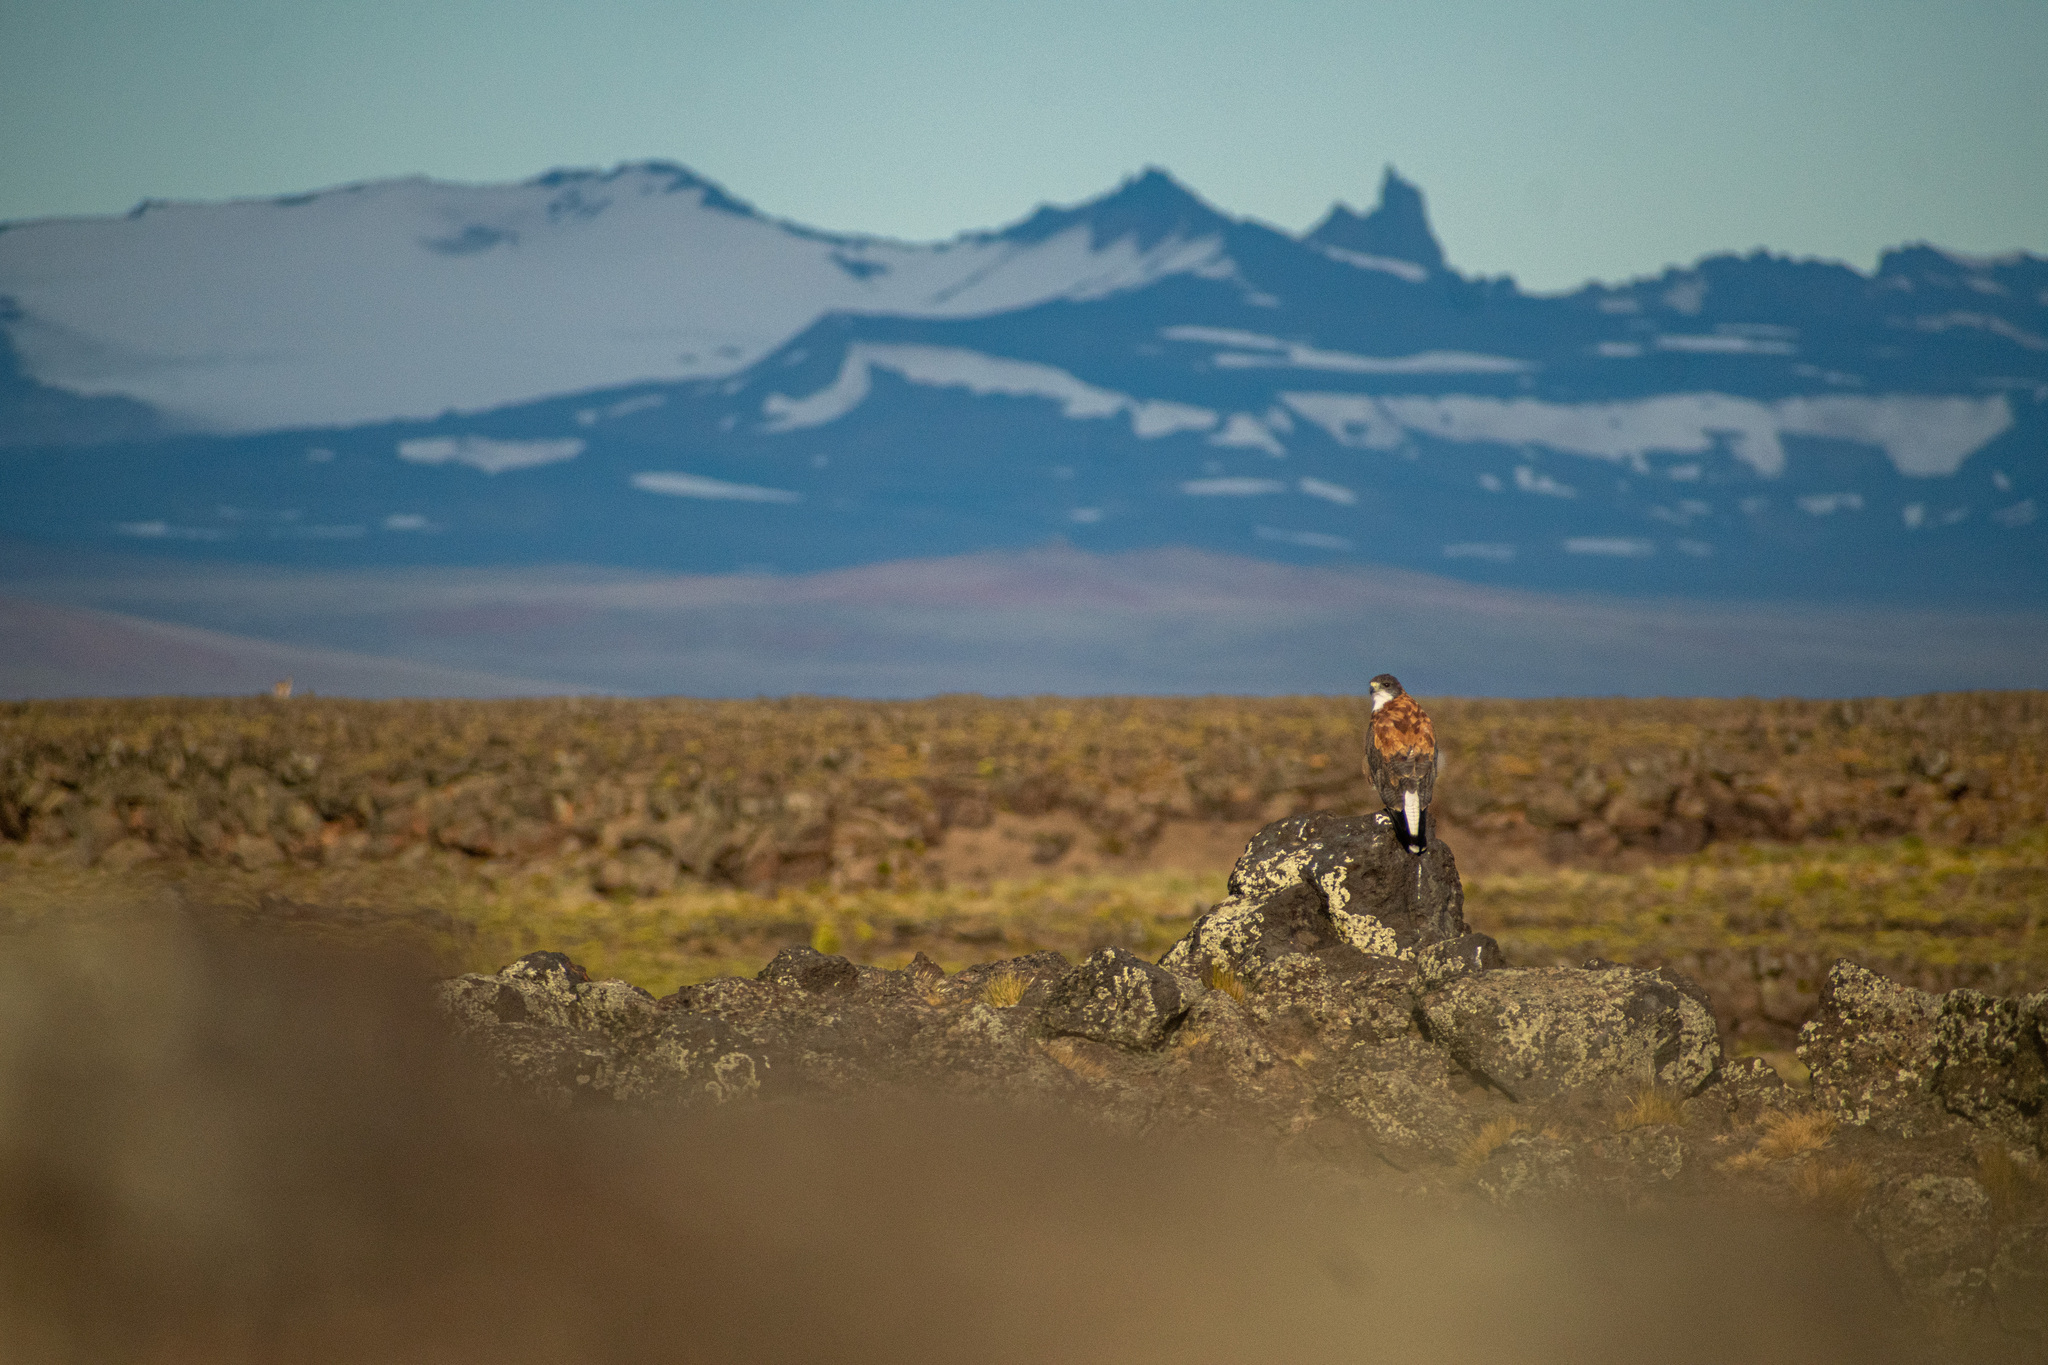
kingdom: Animalia
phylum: Chordata
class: Aves
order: Accipitriformes
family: Accipitridae
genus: Buteo
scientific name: Buteo polyosoma
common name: Variable hawk
